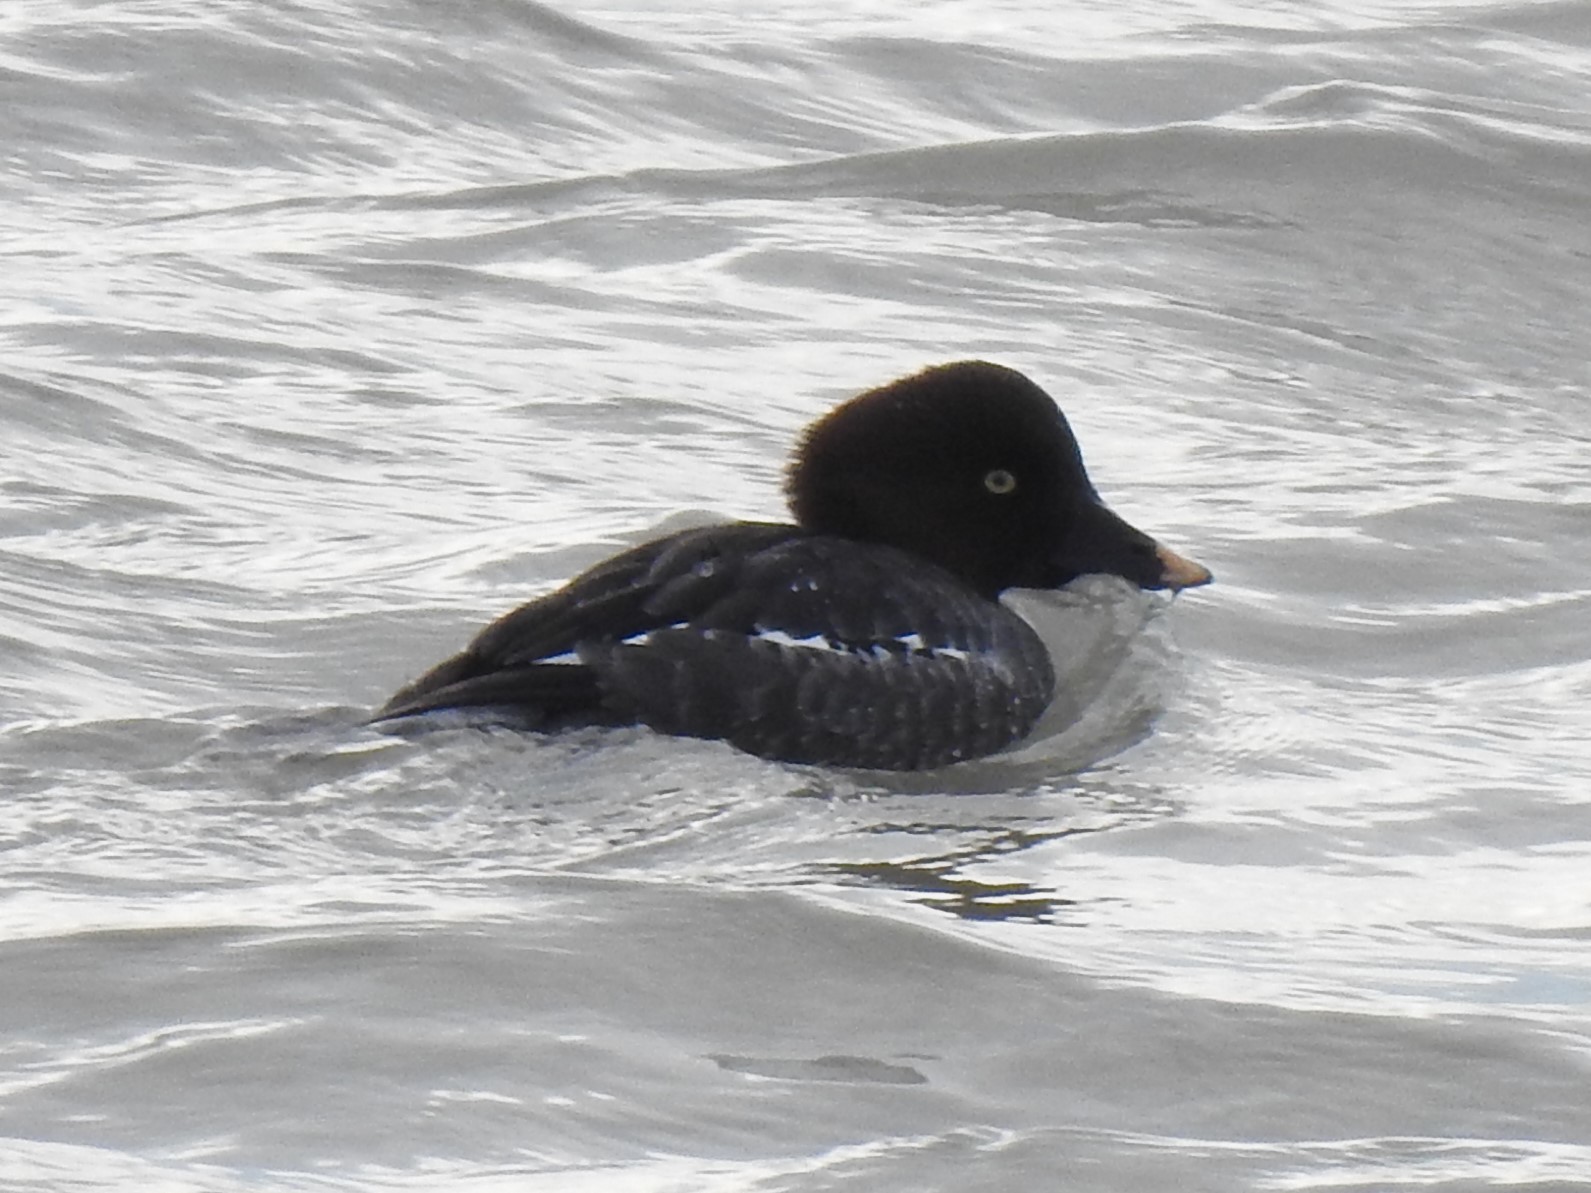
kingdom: Animalia
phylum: Chordata
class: Aves
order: Anseriformes
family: Anatidae
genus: Bucephala
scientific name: Bucephala clangula
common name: Common goldeneye
